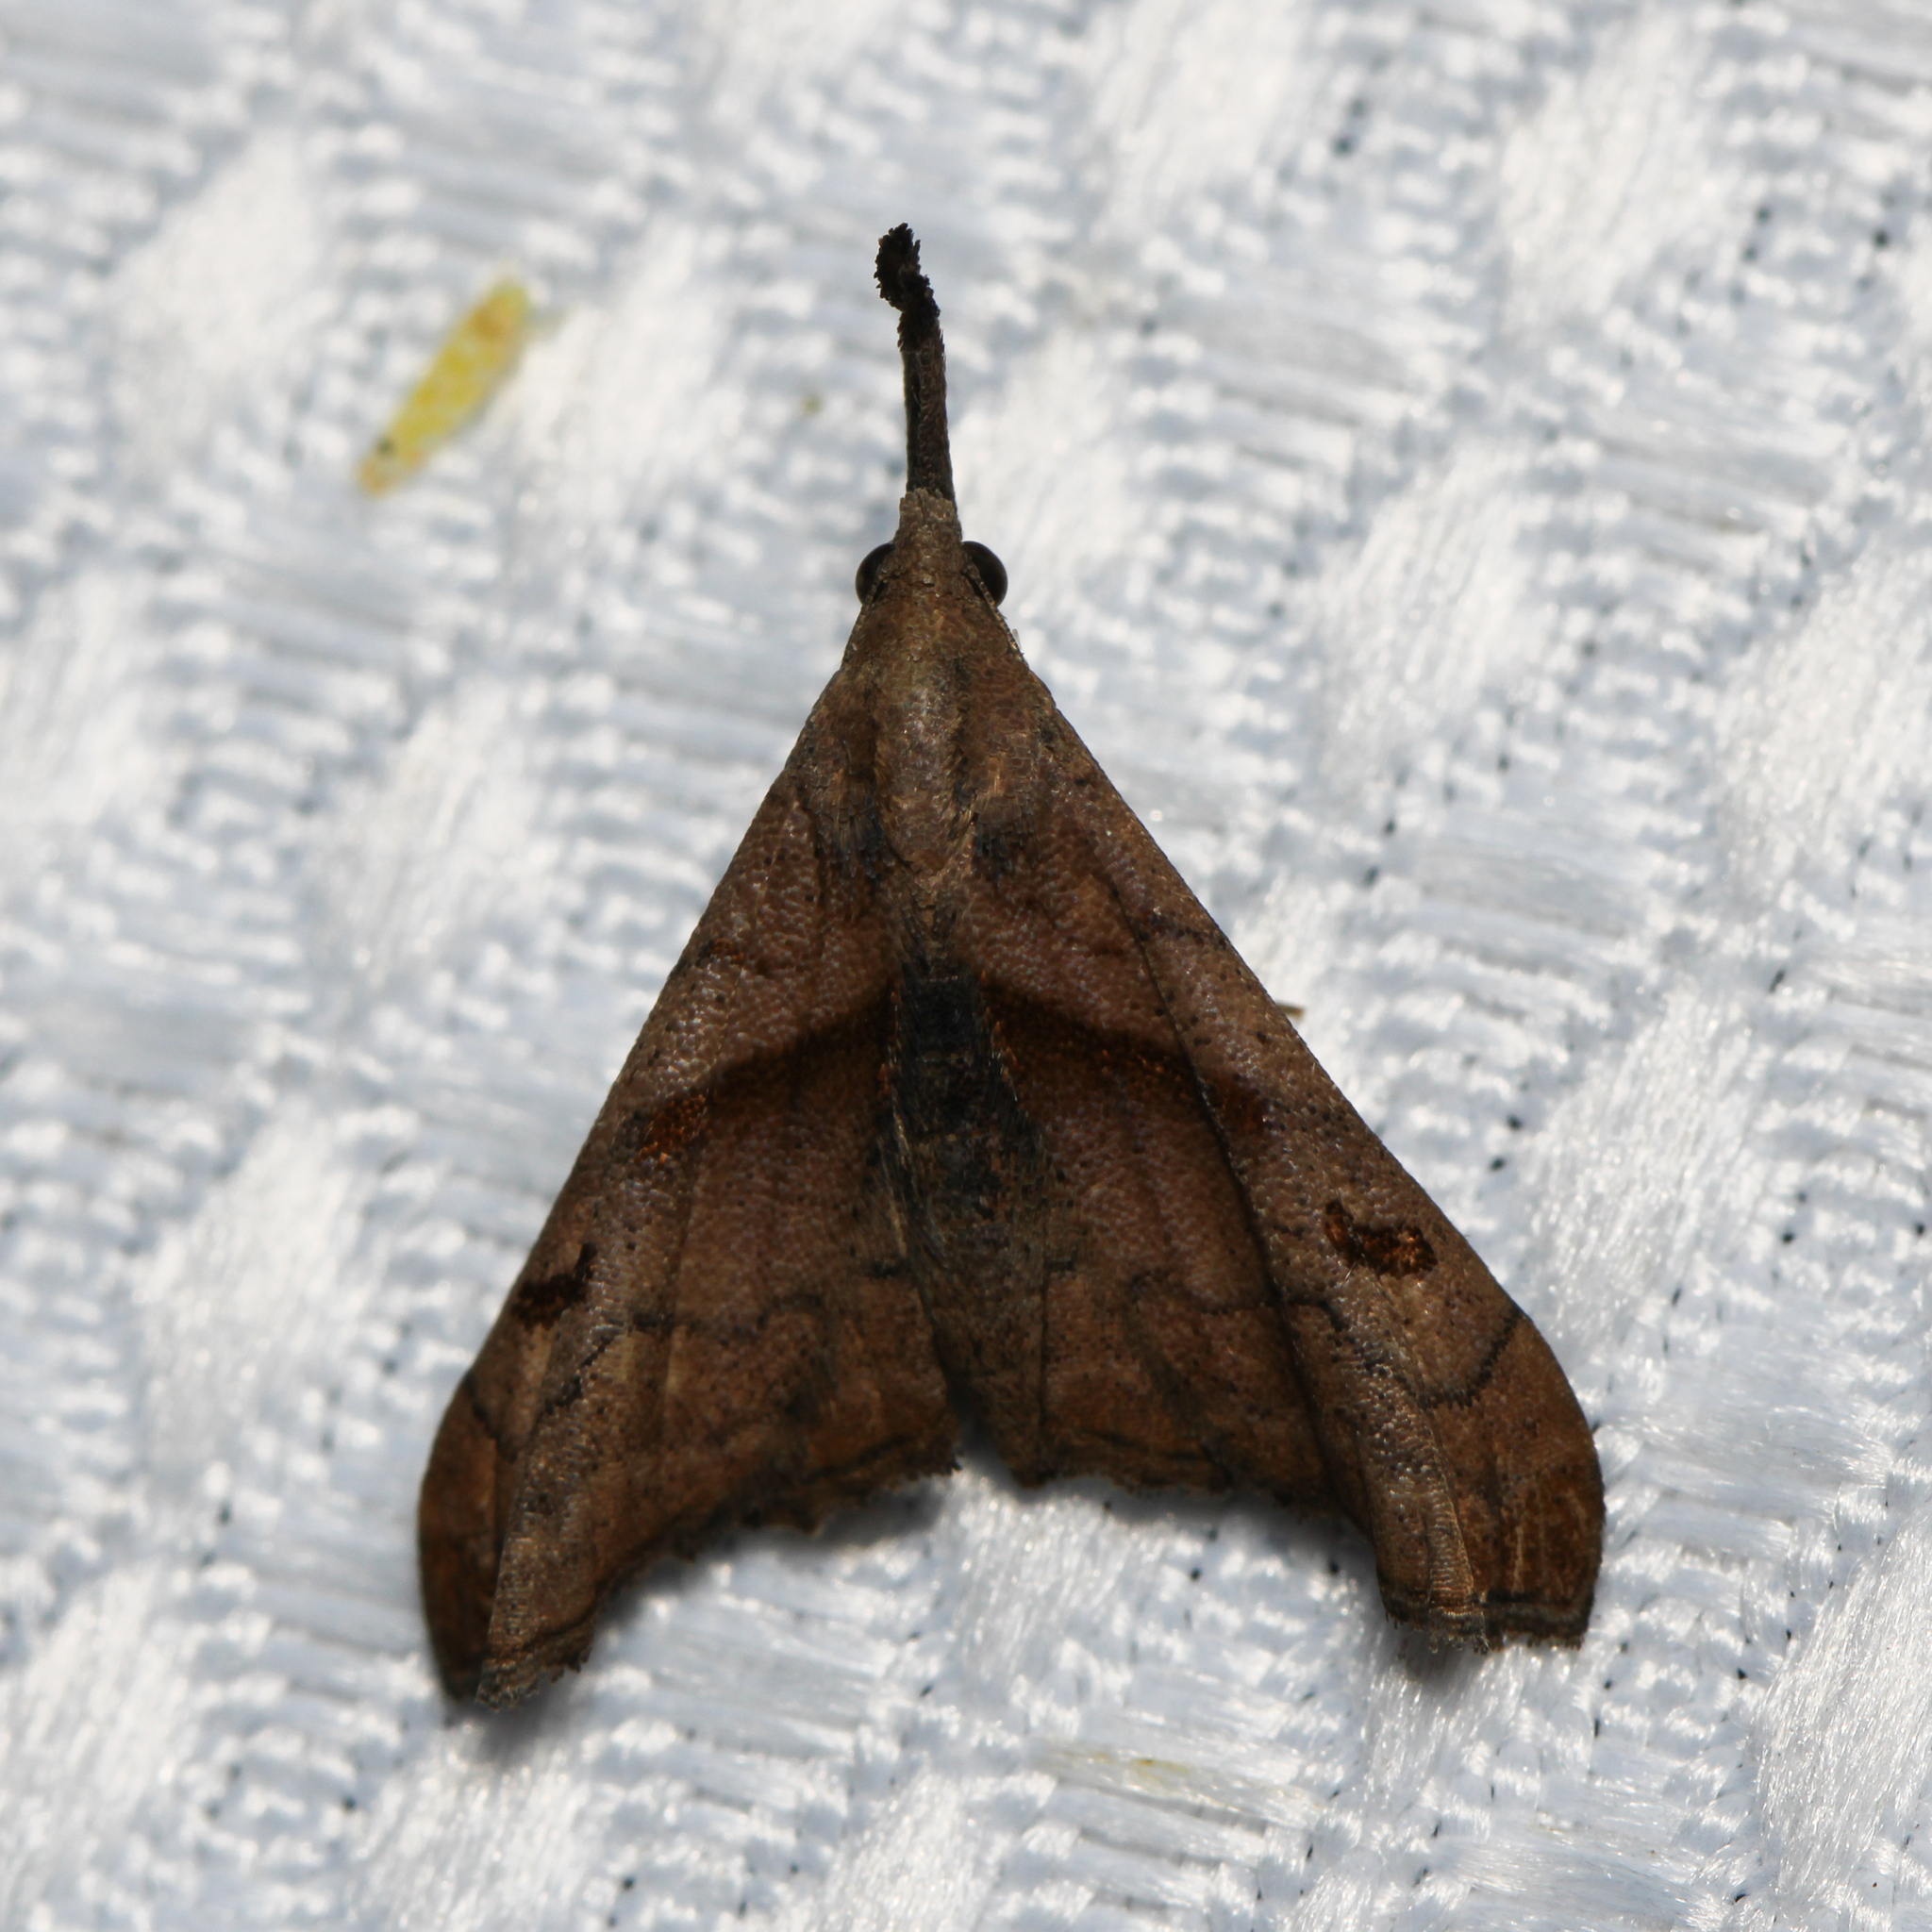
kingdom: Animalia
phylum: Arthropoda
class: Insecta
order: Lepidoptera
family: Erebidae
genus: Palthis
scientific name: Palthis angulalis
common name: Dark-spotted palthis moth
